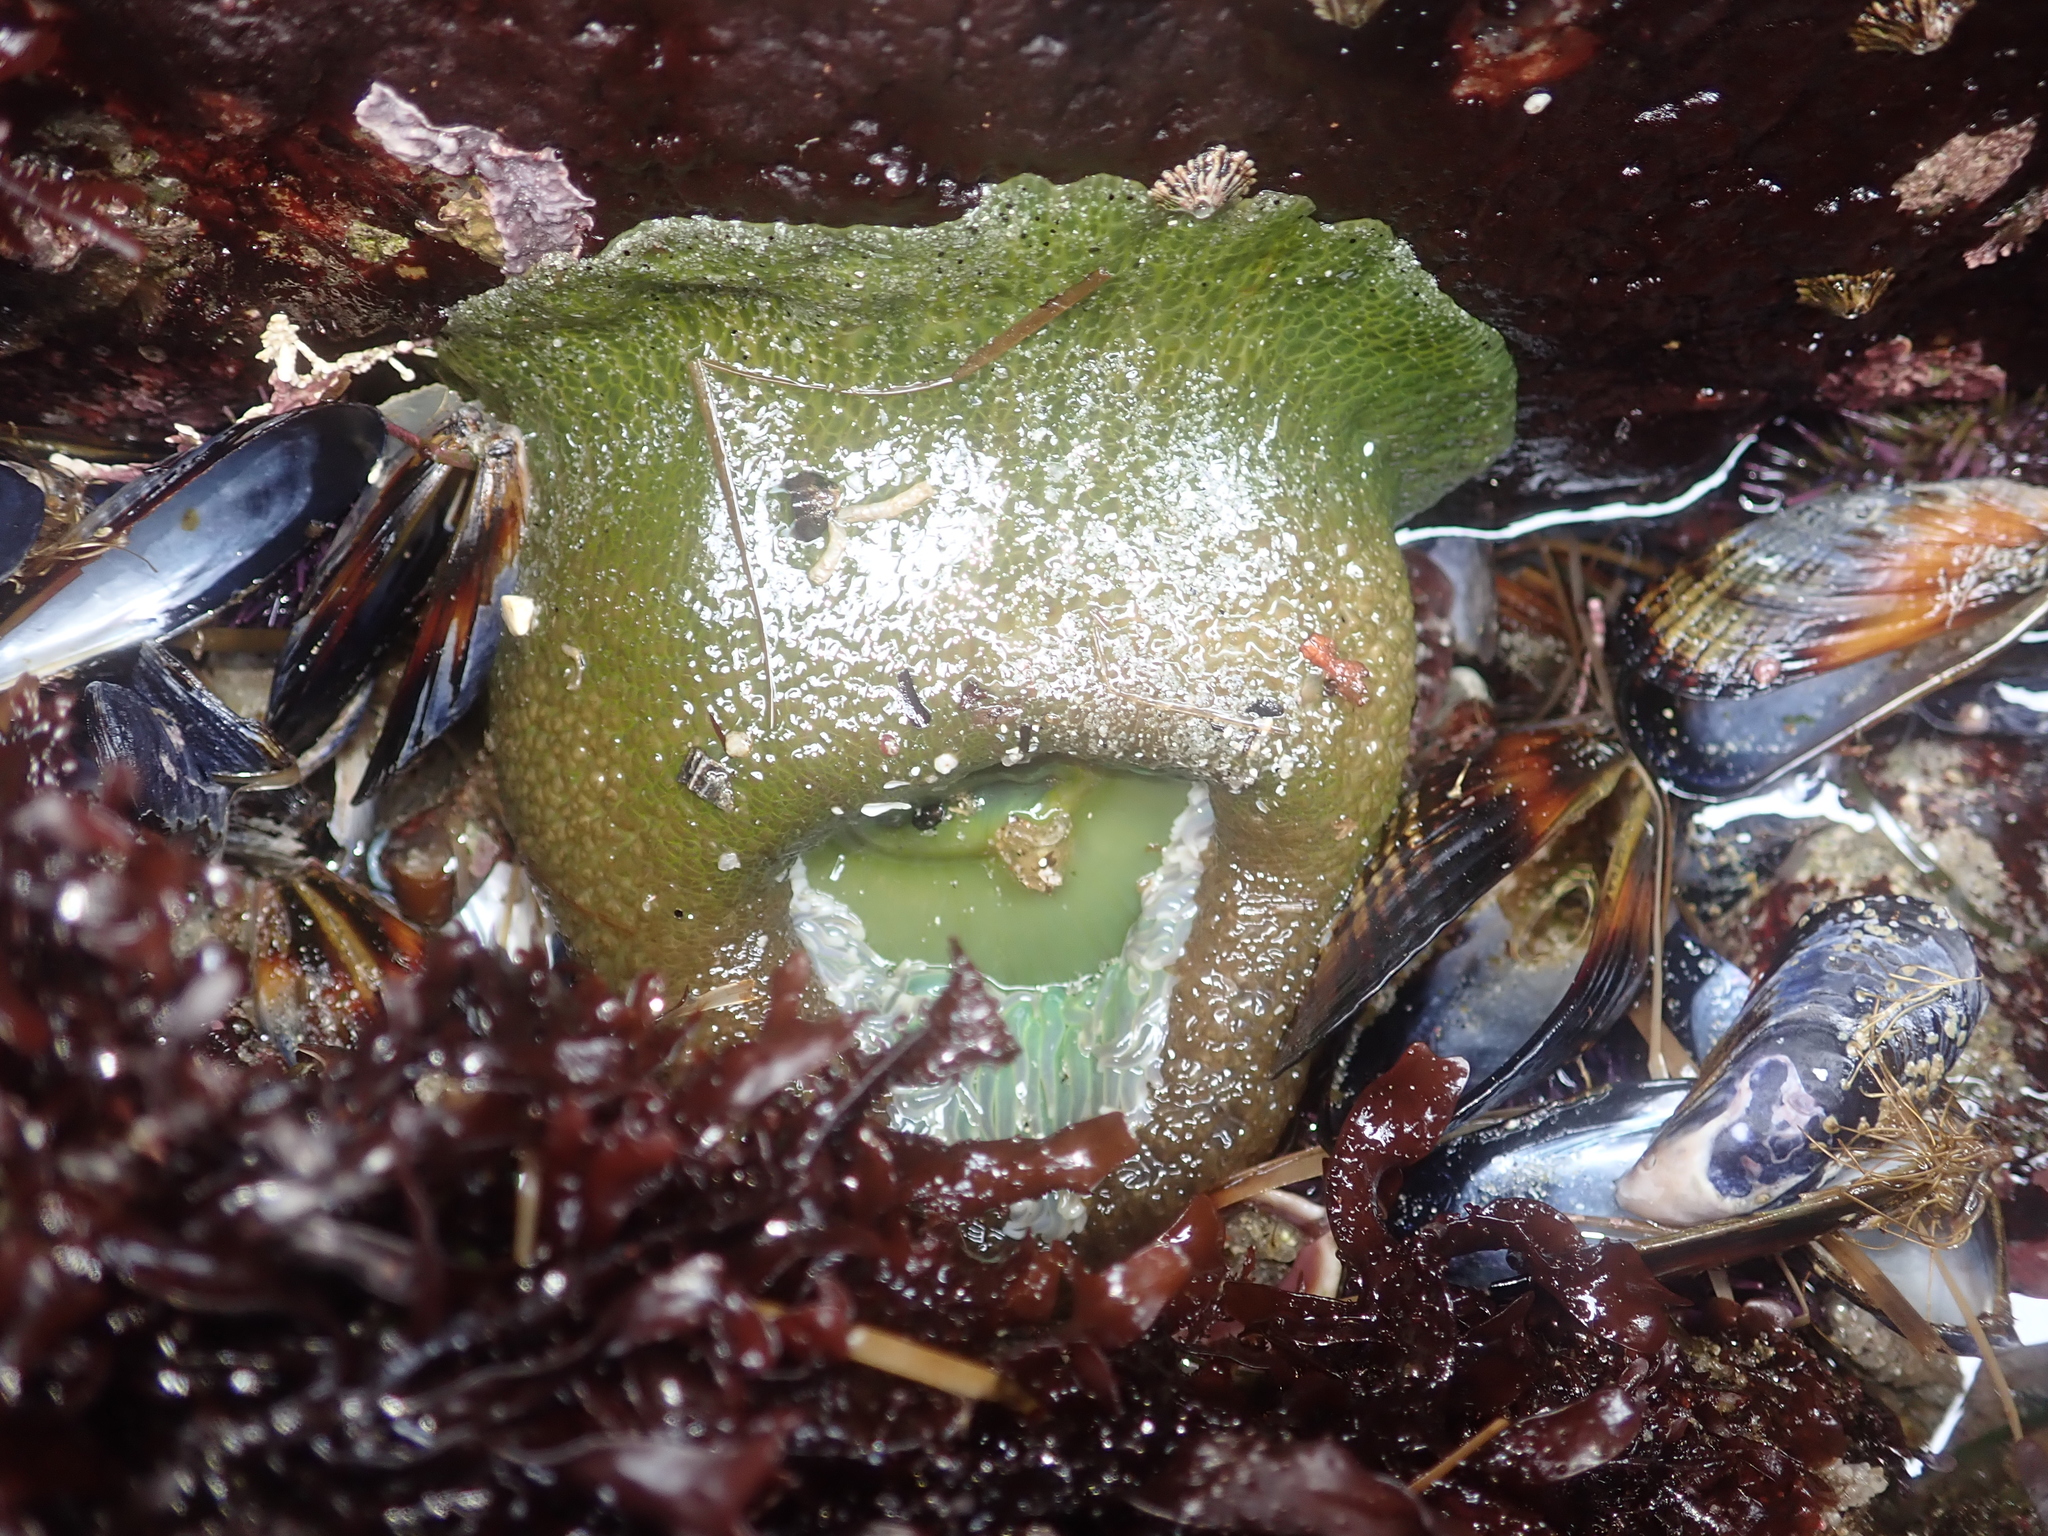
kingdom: Animalia
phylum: Cnidaria
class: Anthozoa
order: Actiniaria
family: Actiniidae
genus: Anthopleura
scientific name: Anthopleura xanthogrammica
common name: Giant green anemone
